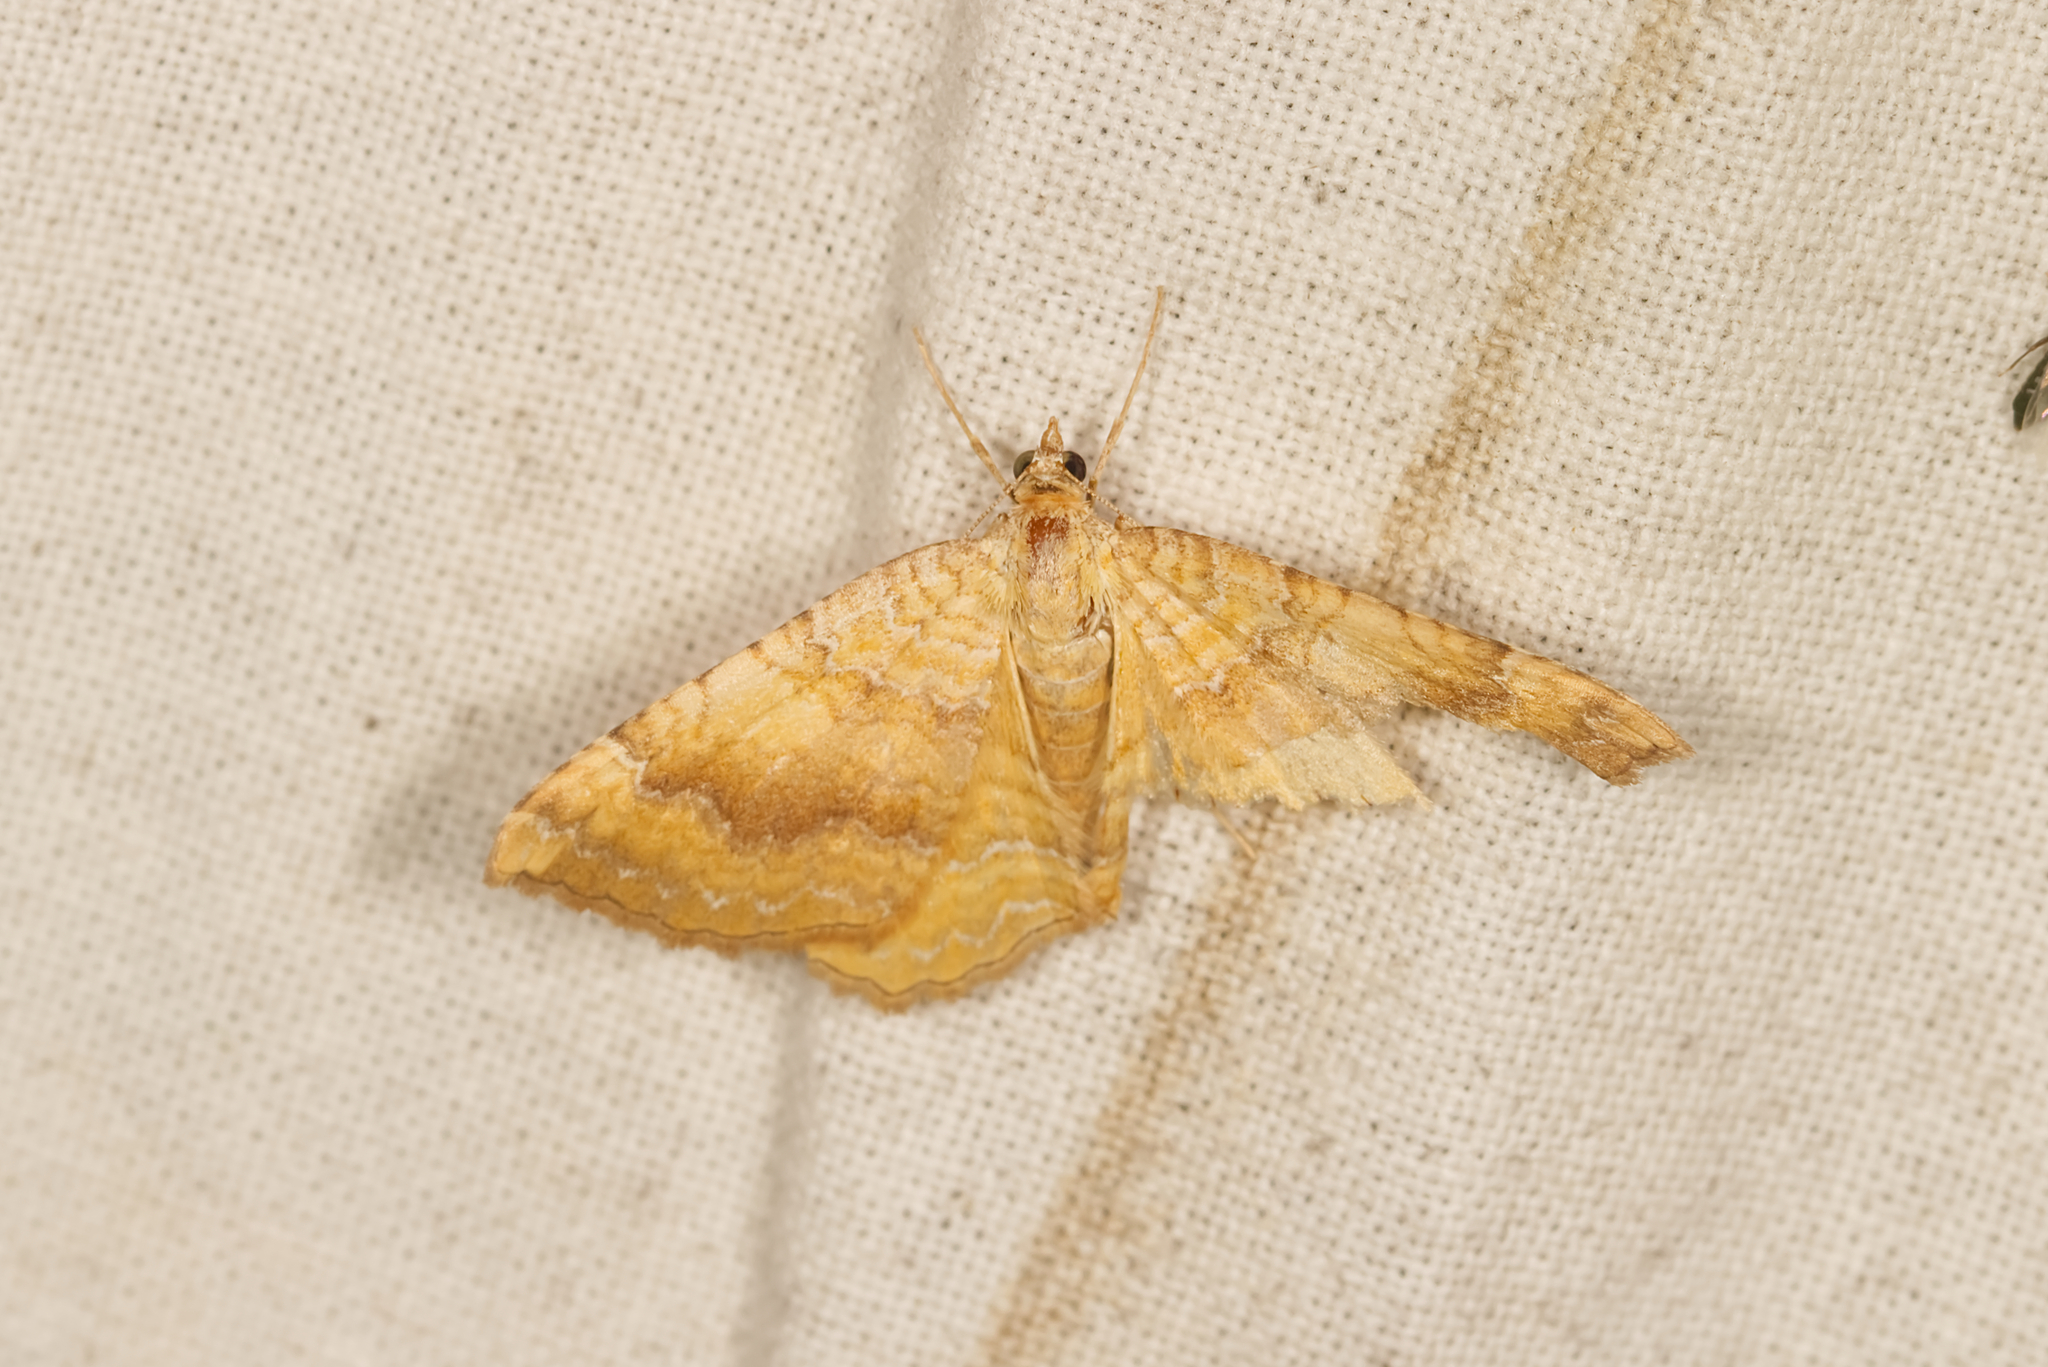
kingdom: Animalia
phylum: Arthropoda
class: Insecta
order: Lepidoptera
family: Geometridae
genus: Camptogramma
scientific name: Camptogramma bilineata
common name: Yellow shell
